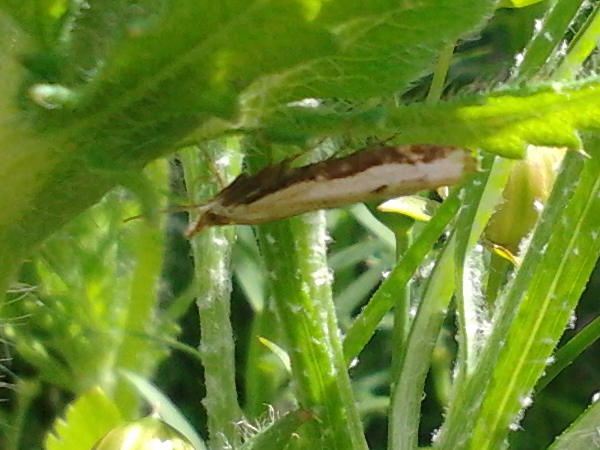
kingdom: Animalia
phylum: Arthropoda
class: Insecta
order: Lepidoptera
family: Crambidae
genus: Orocrambus
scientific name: Orocrambus flexuosellus
